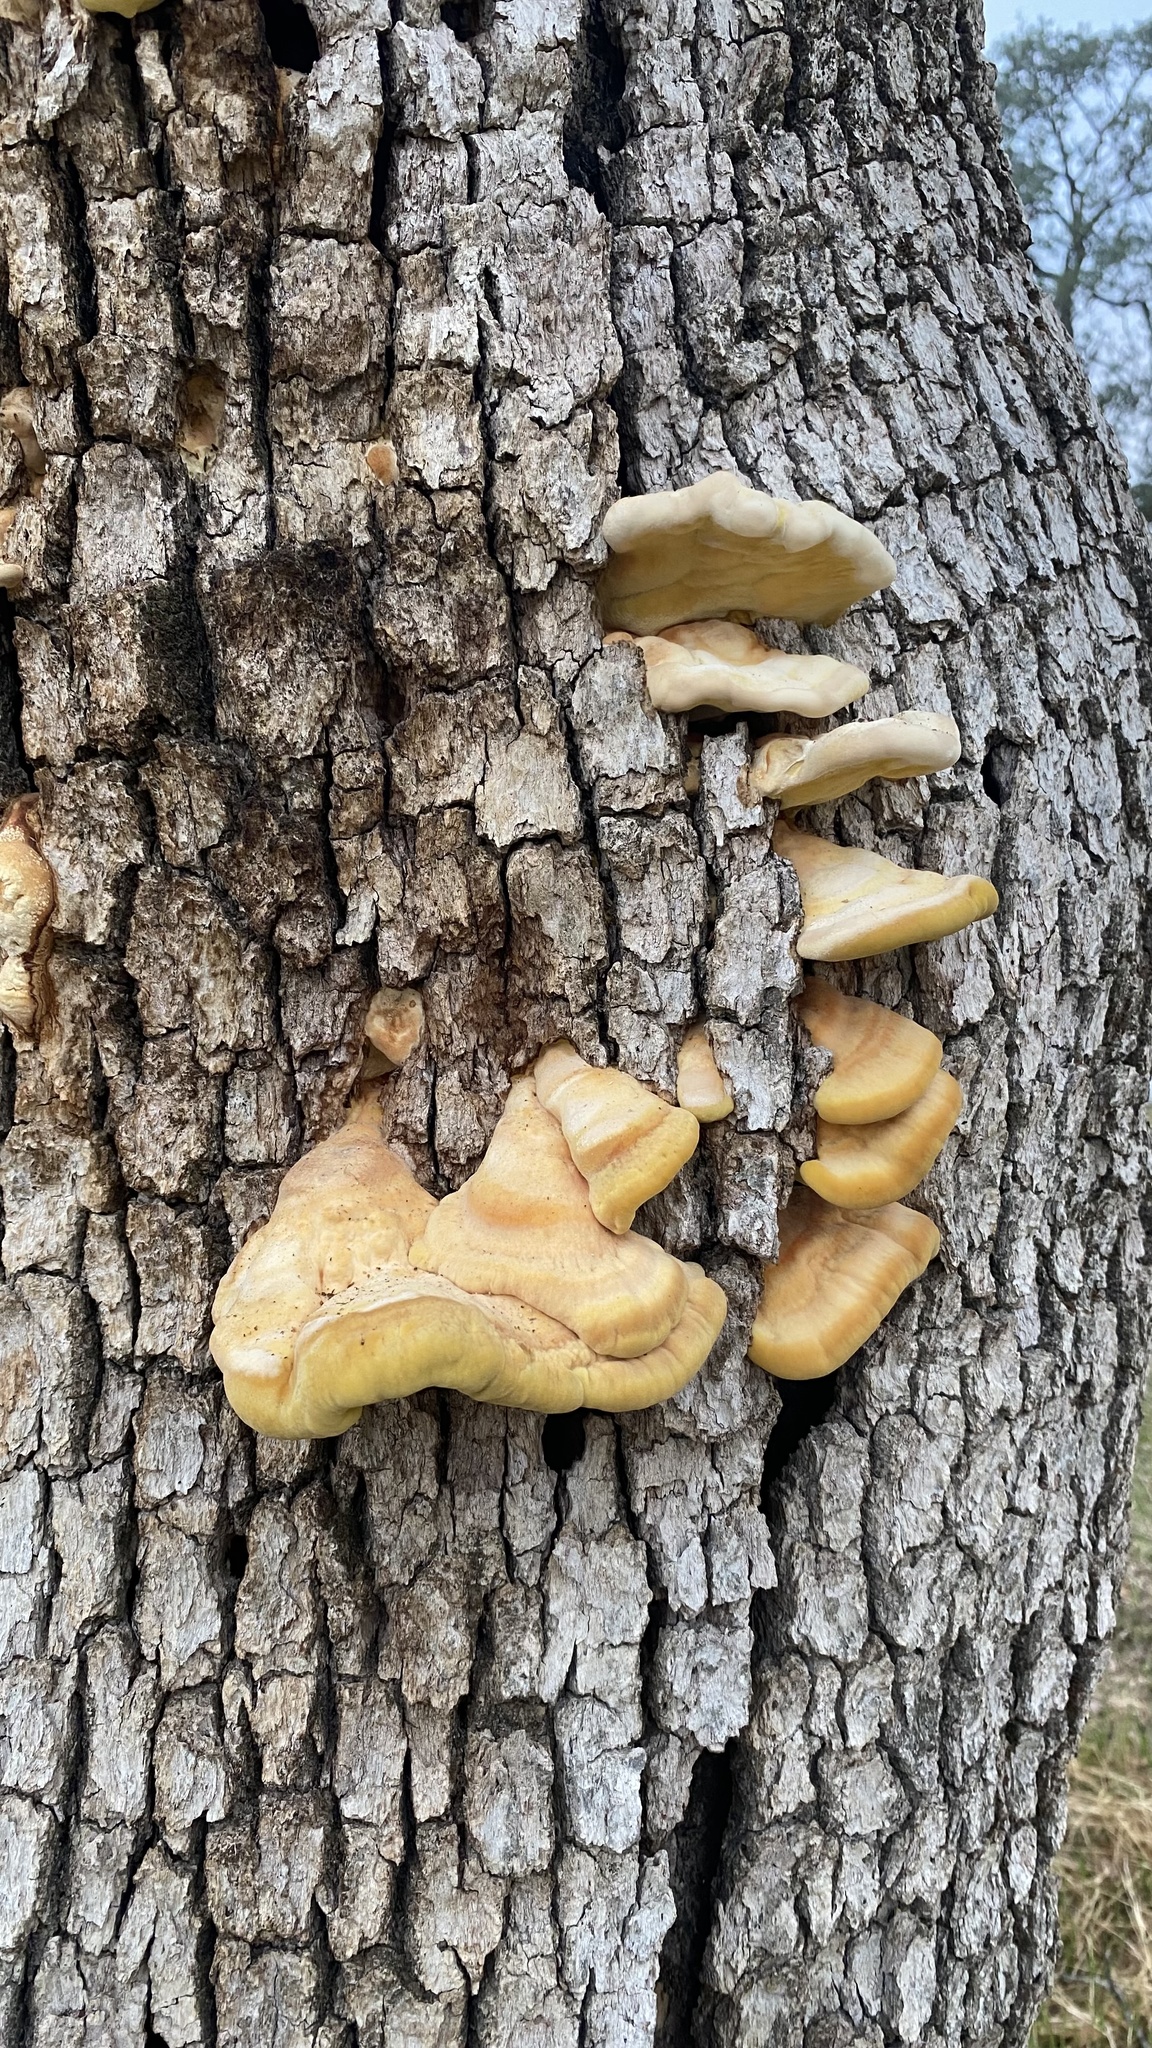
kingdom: Fungi
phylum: Basidiomycota
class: Agaricomycetes
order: Polyporales
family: Laetiporaceae
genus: Laetiporus
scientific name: Laetiporus gilbertsonii
